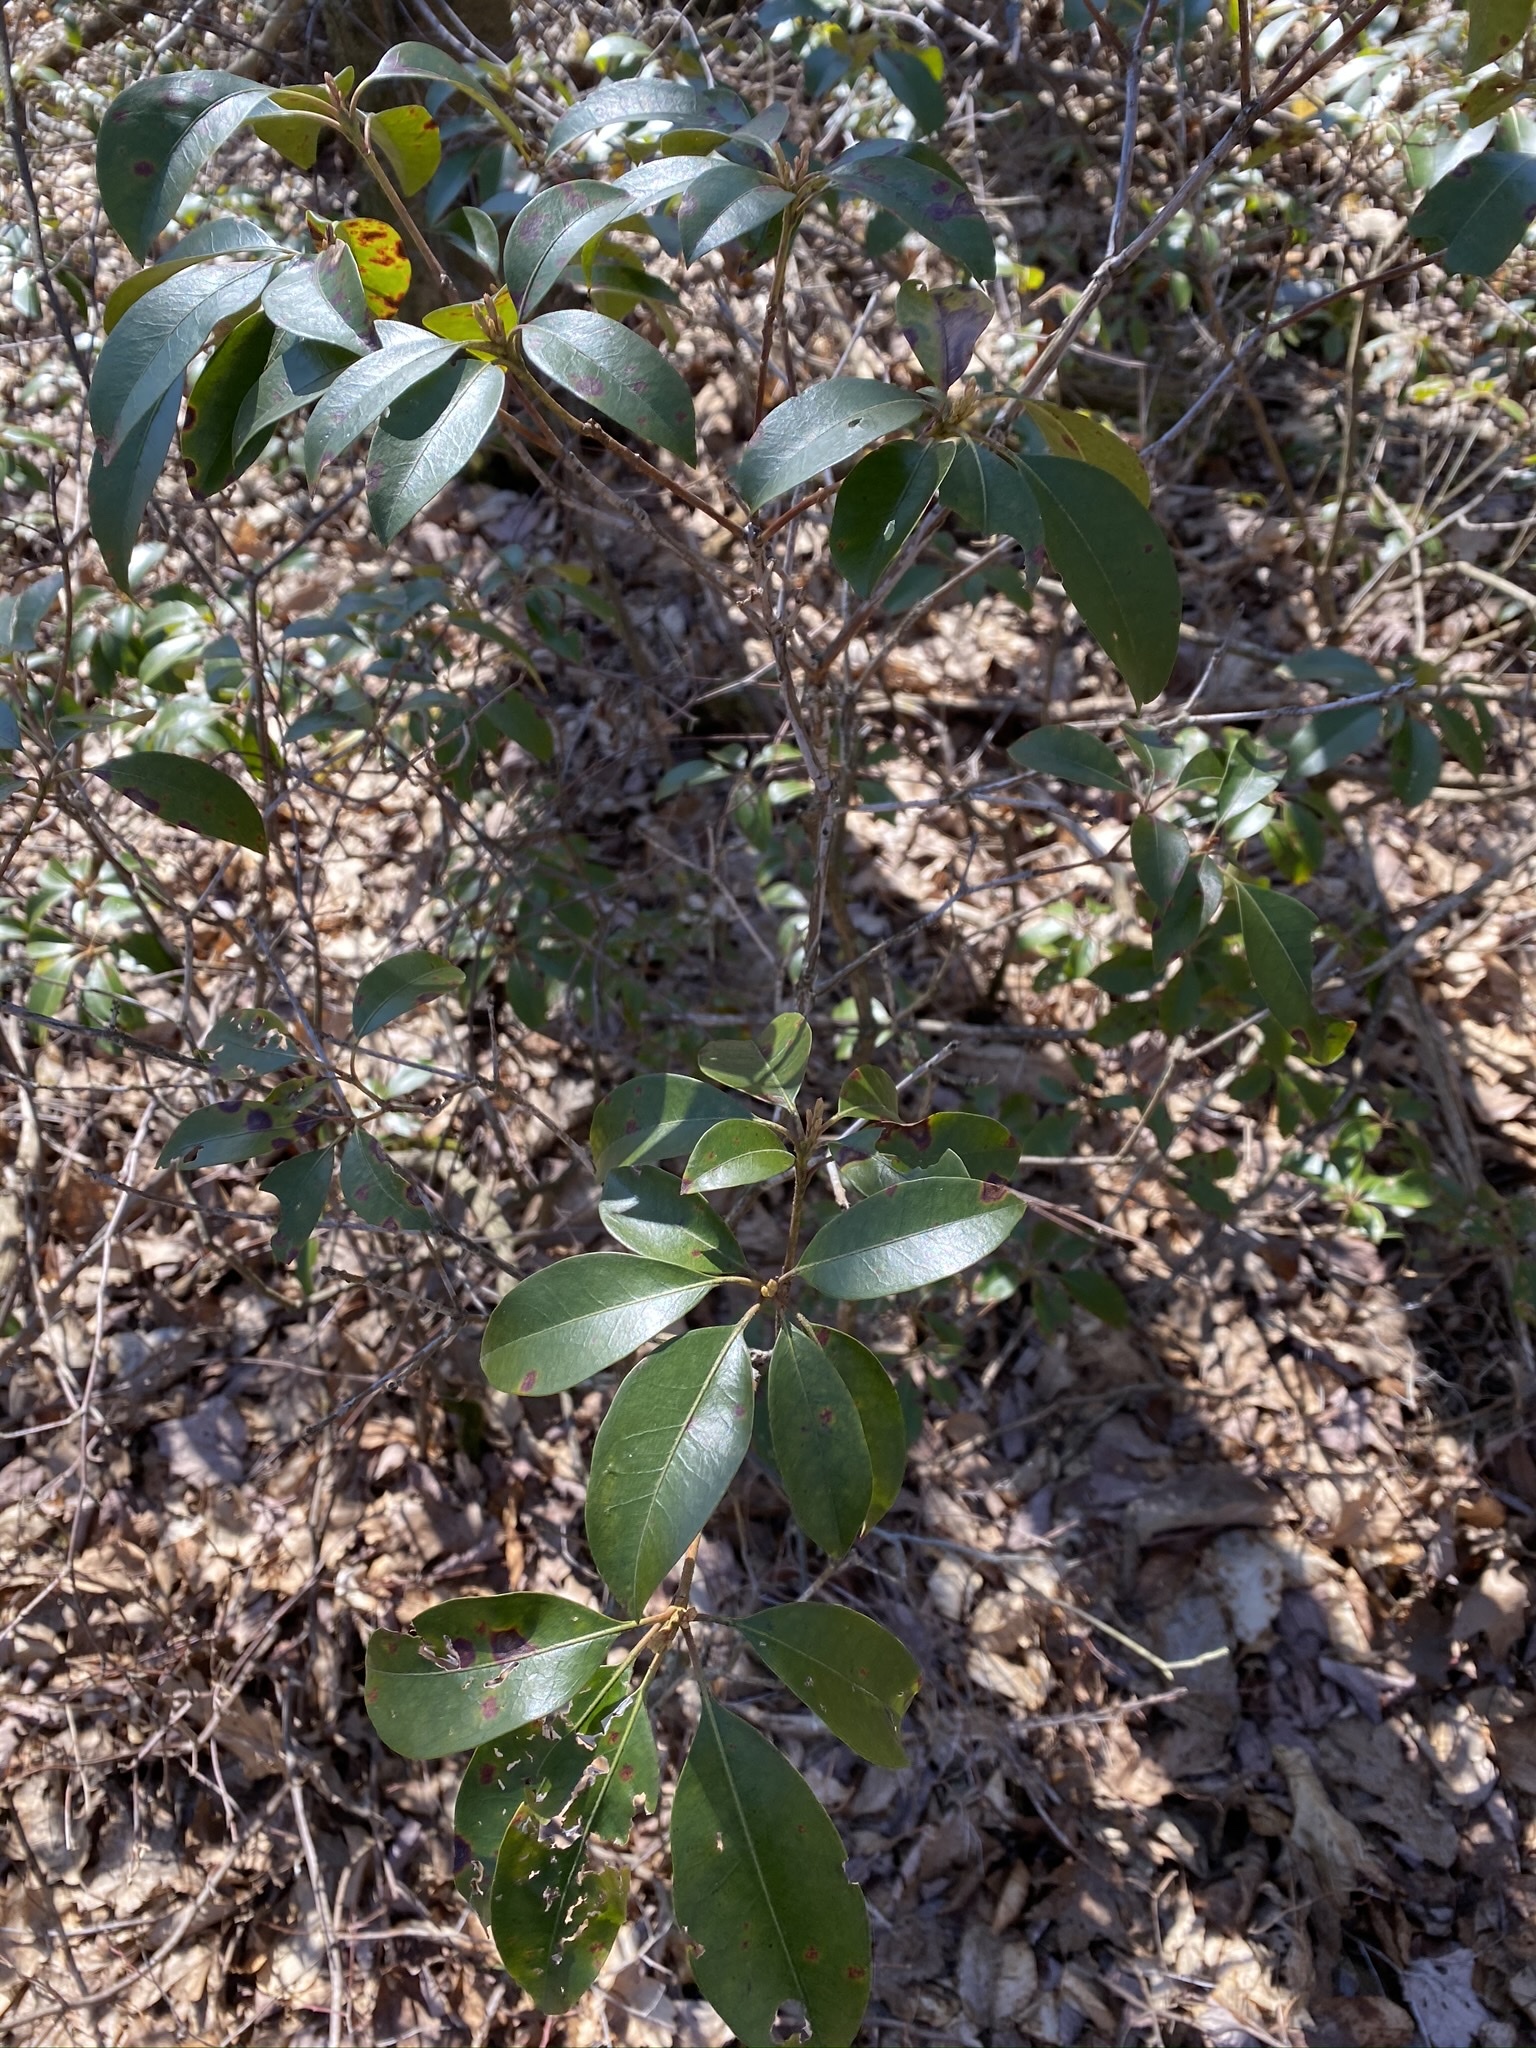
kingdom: Plantae
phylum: Tracheophyta
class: Magnoliopsida
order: Ericales
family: Ericaceae
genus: Kalmia
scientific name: Kalmia latifolia
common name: Mountain-laurel
